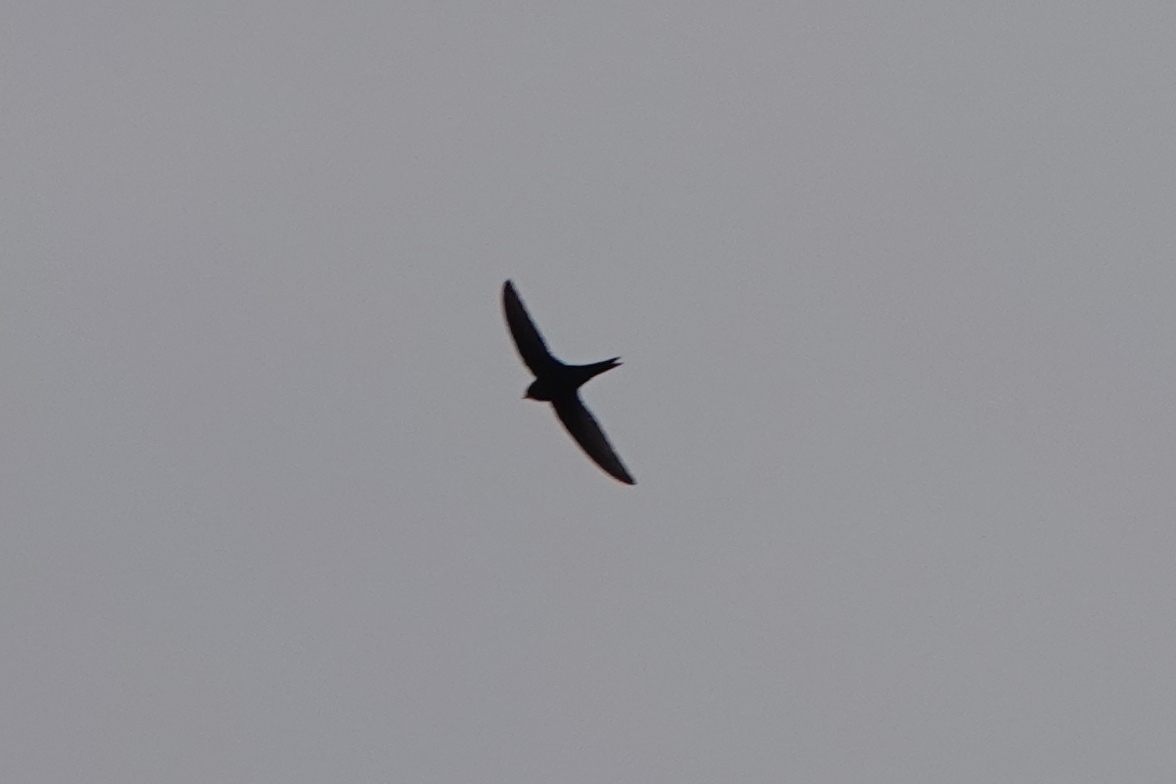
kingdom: Animalia
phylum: Chordata
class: Aves
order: Apodiformes
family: Apodidae
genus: Apus
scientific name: Apus apus
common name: Common swift
